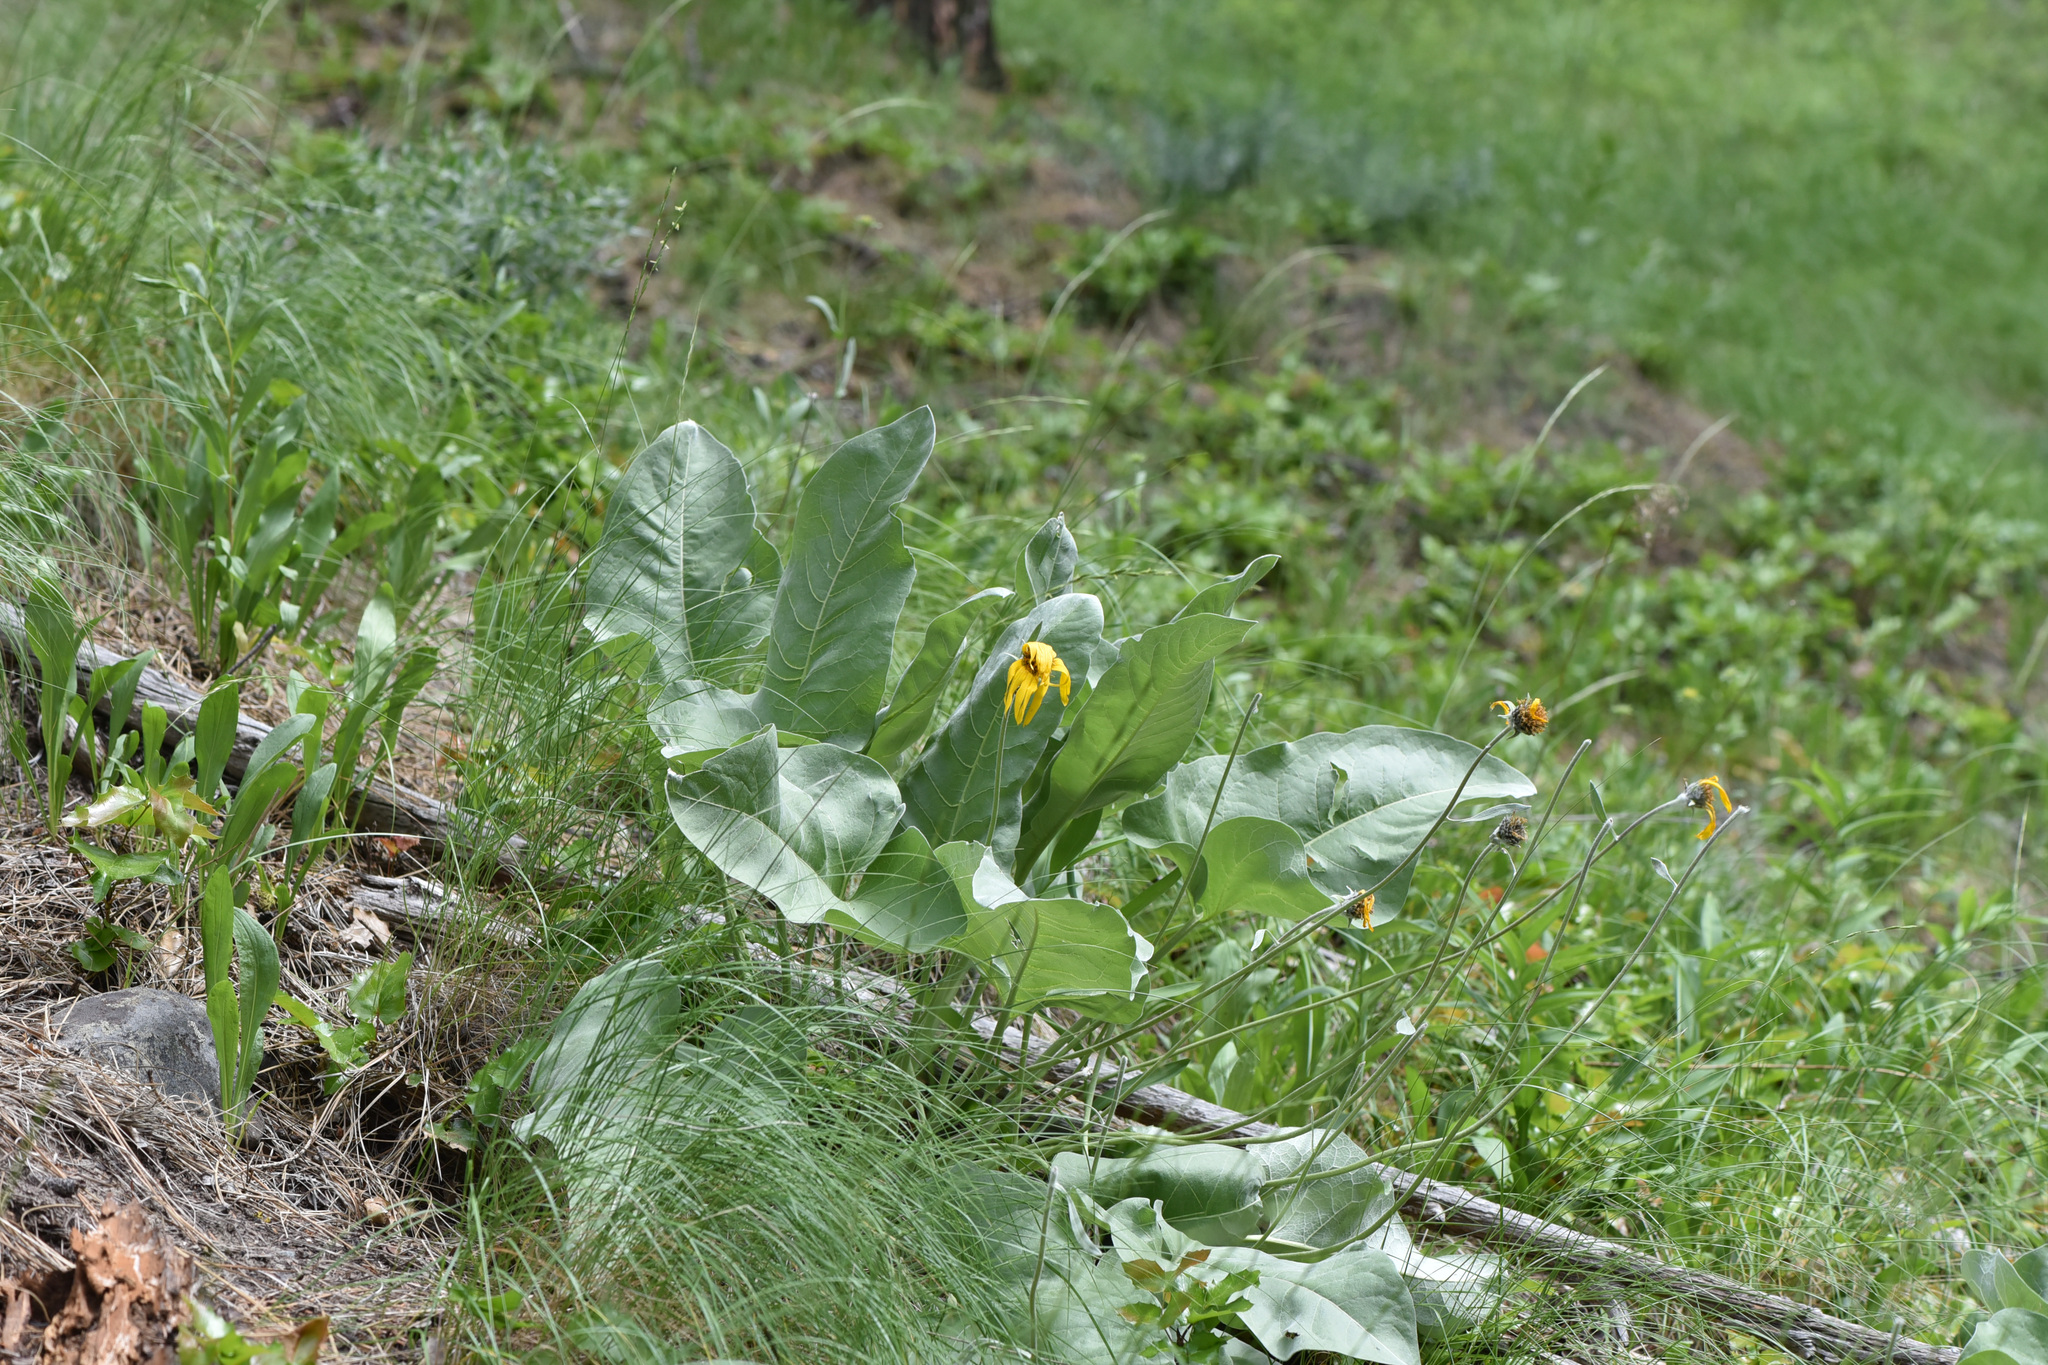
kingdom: Plantae
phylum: Tracheophyta
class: Magnoliopsida
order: Asterales
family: Asteraceae
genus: Wyethia
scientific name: Wyethia sagittata
